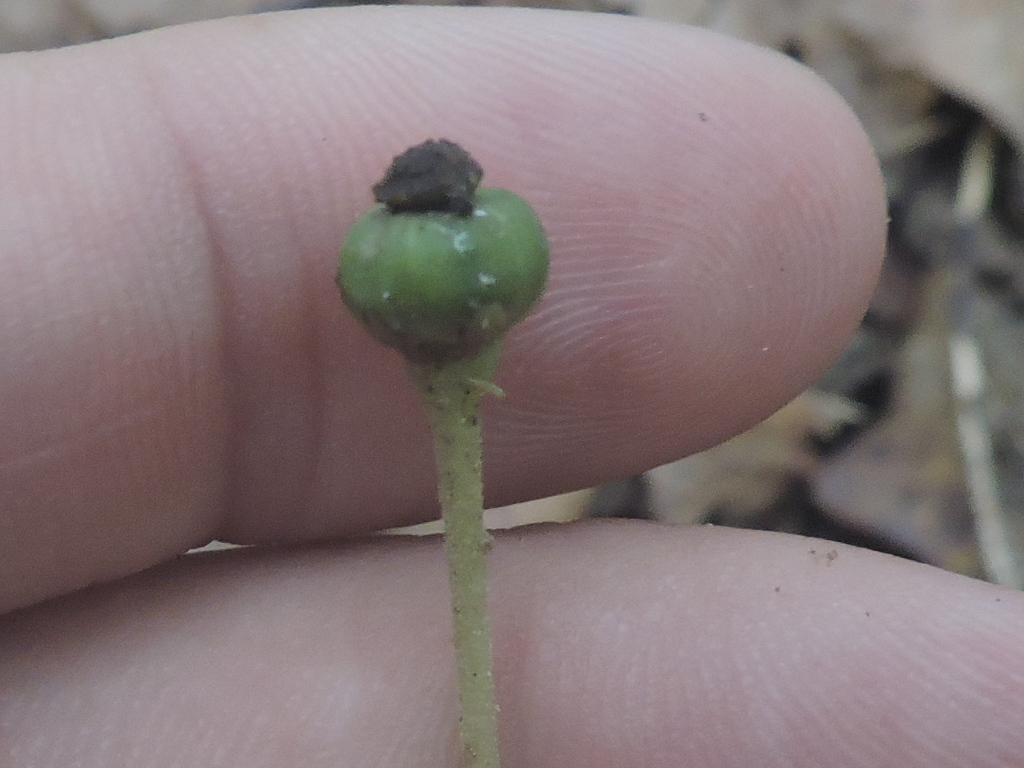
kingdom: Plantae
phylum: Tracheophyta
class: Magnoliopsida
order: Ericales
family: Ericaceae
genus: Chimaphila
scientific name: Chimaphila maculata
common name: Spotted pipsissewa
